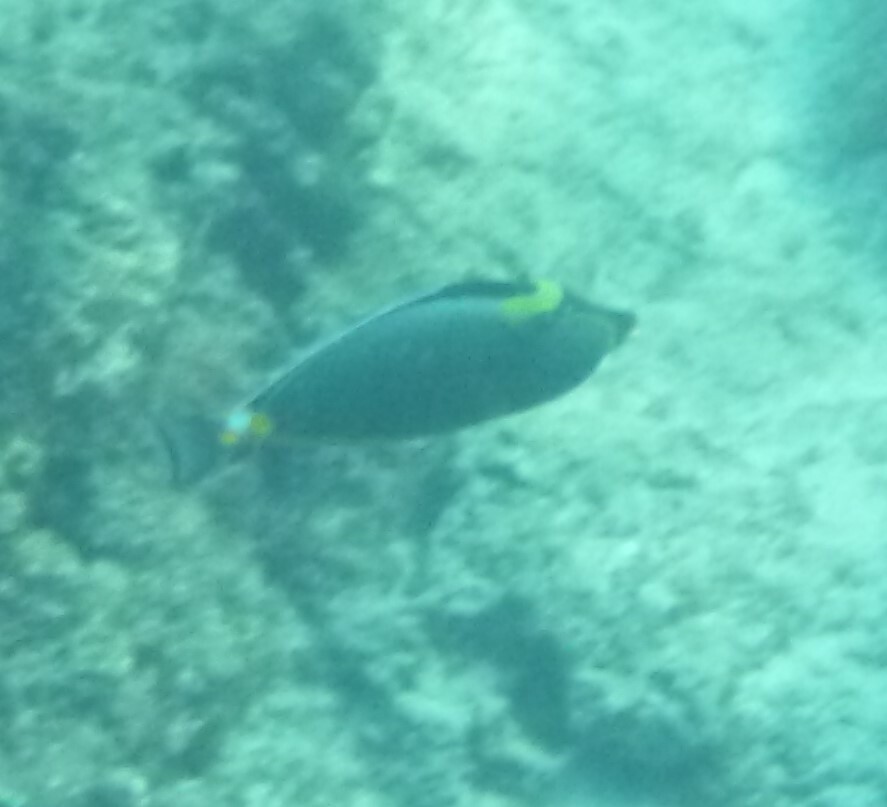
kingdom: Animalia
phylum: Chordata
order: Perciformes
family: Acanthuridae
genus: Naso
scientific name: Naso lituratus
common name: Orangespine unicornfish
